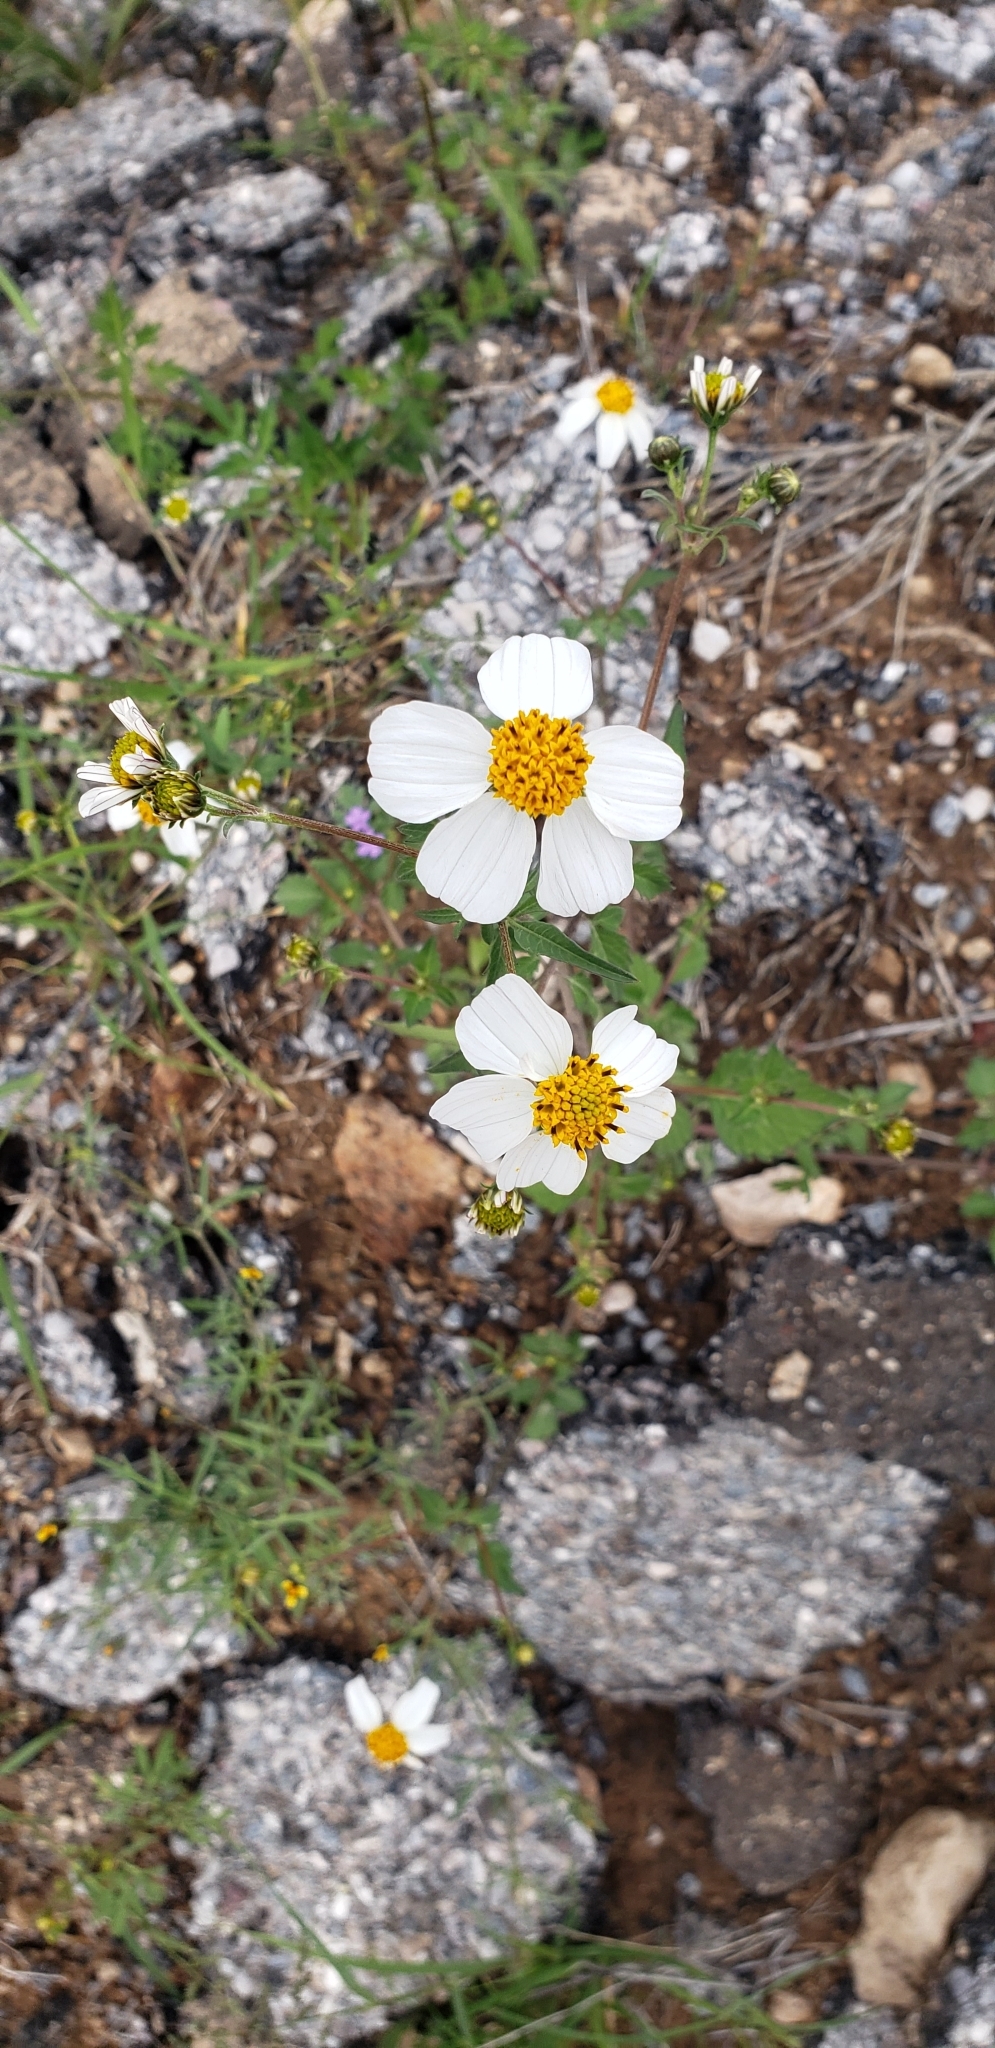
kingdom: Plantae
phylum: Tracheophyta
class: Magnoliopsida
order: Asterales
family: Asteraceae
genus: Bidens
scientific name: Bidens odorata
